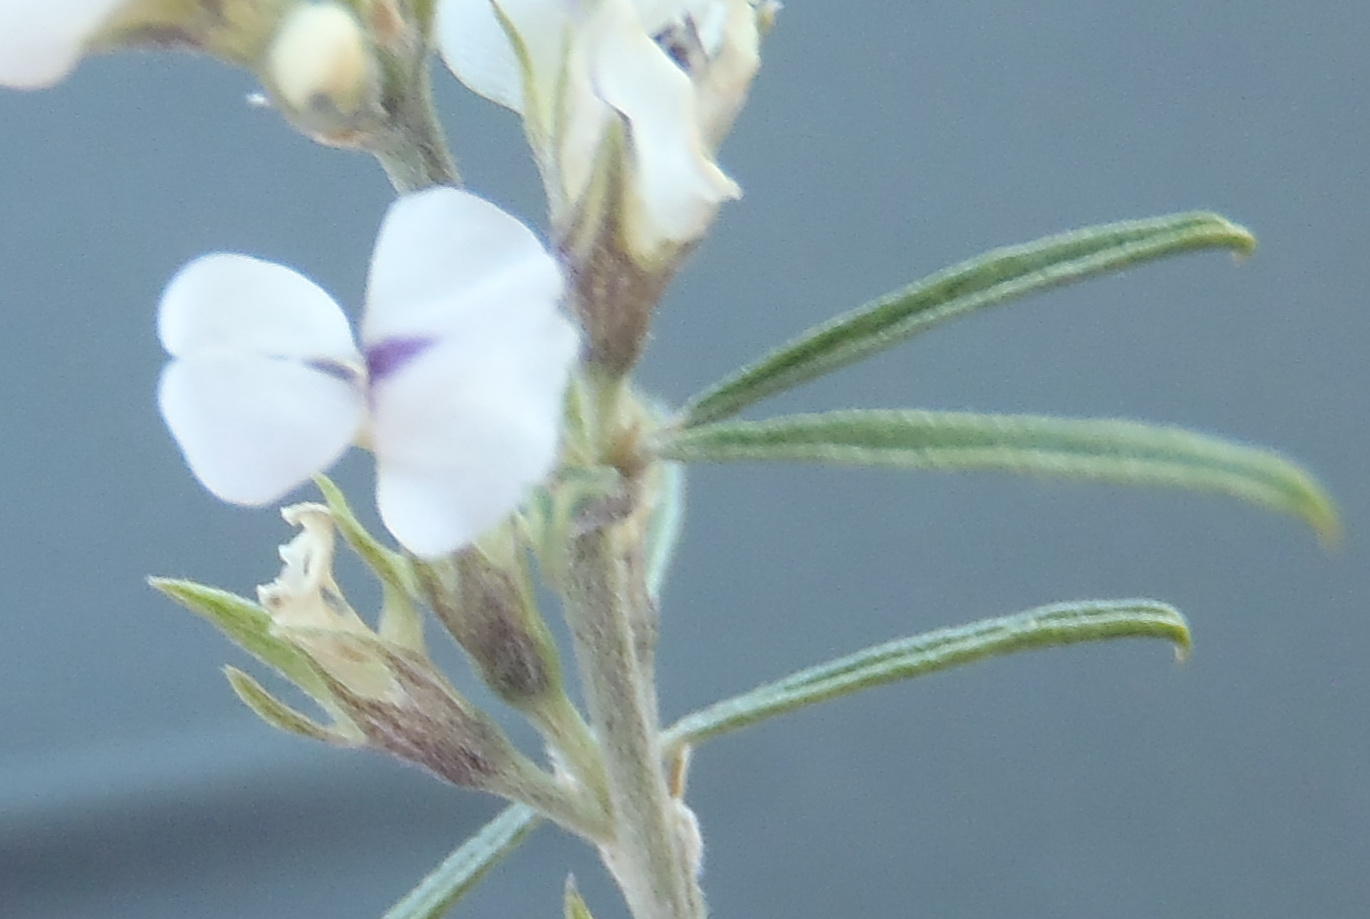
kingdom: Plantae
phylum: Tracheophyta
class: Magnoliopsida
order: Fabales
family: Fabaceae
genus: Psoralea
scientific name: Psoralea candicans
